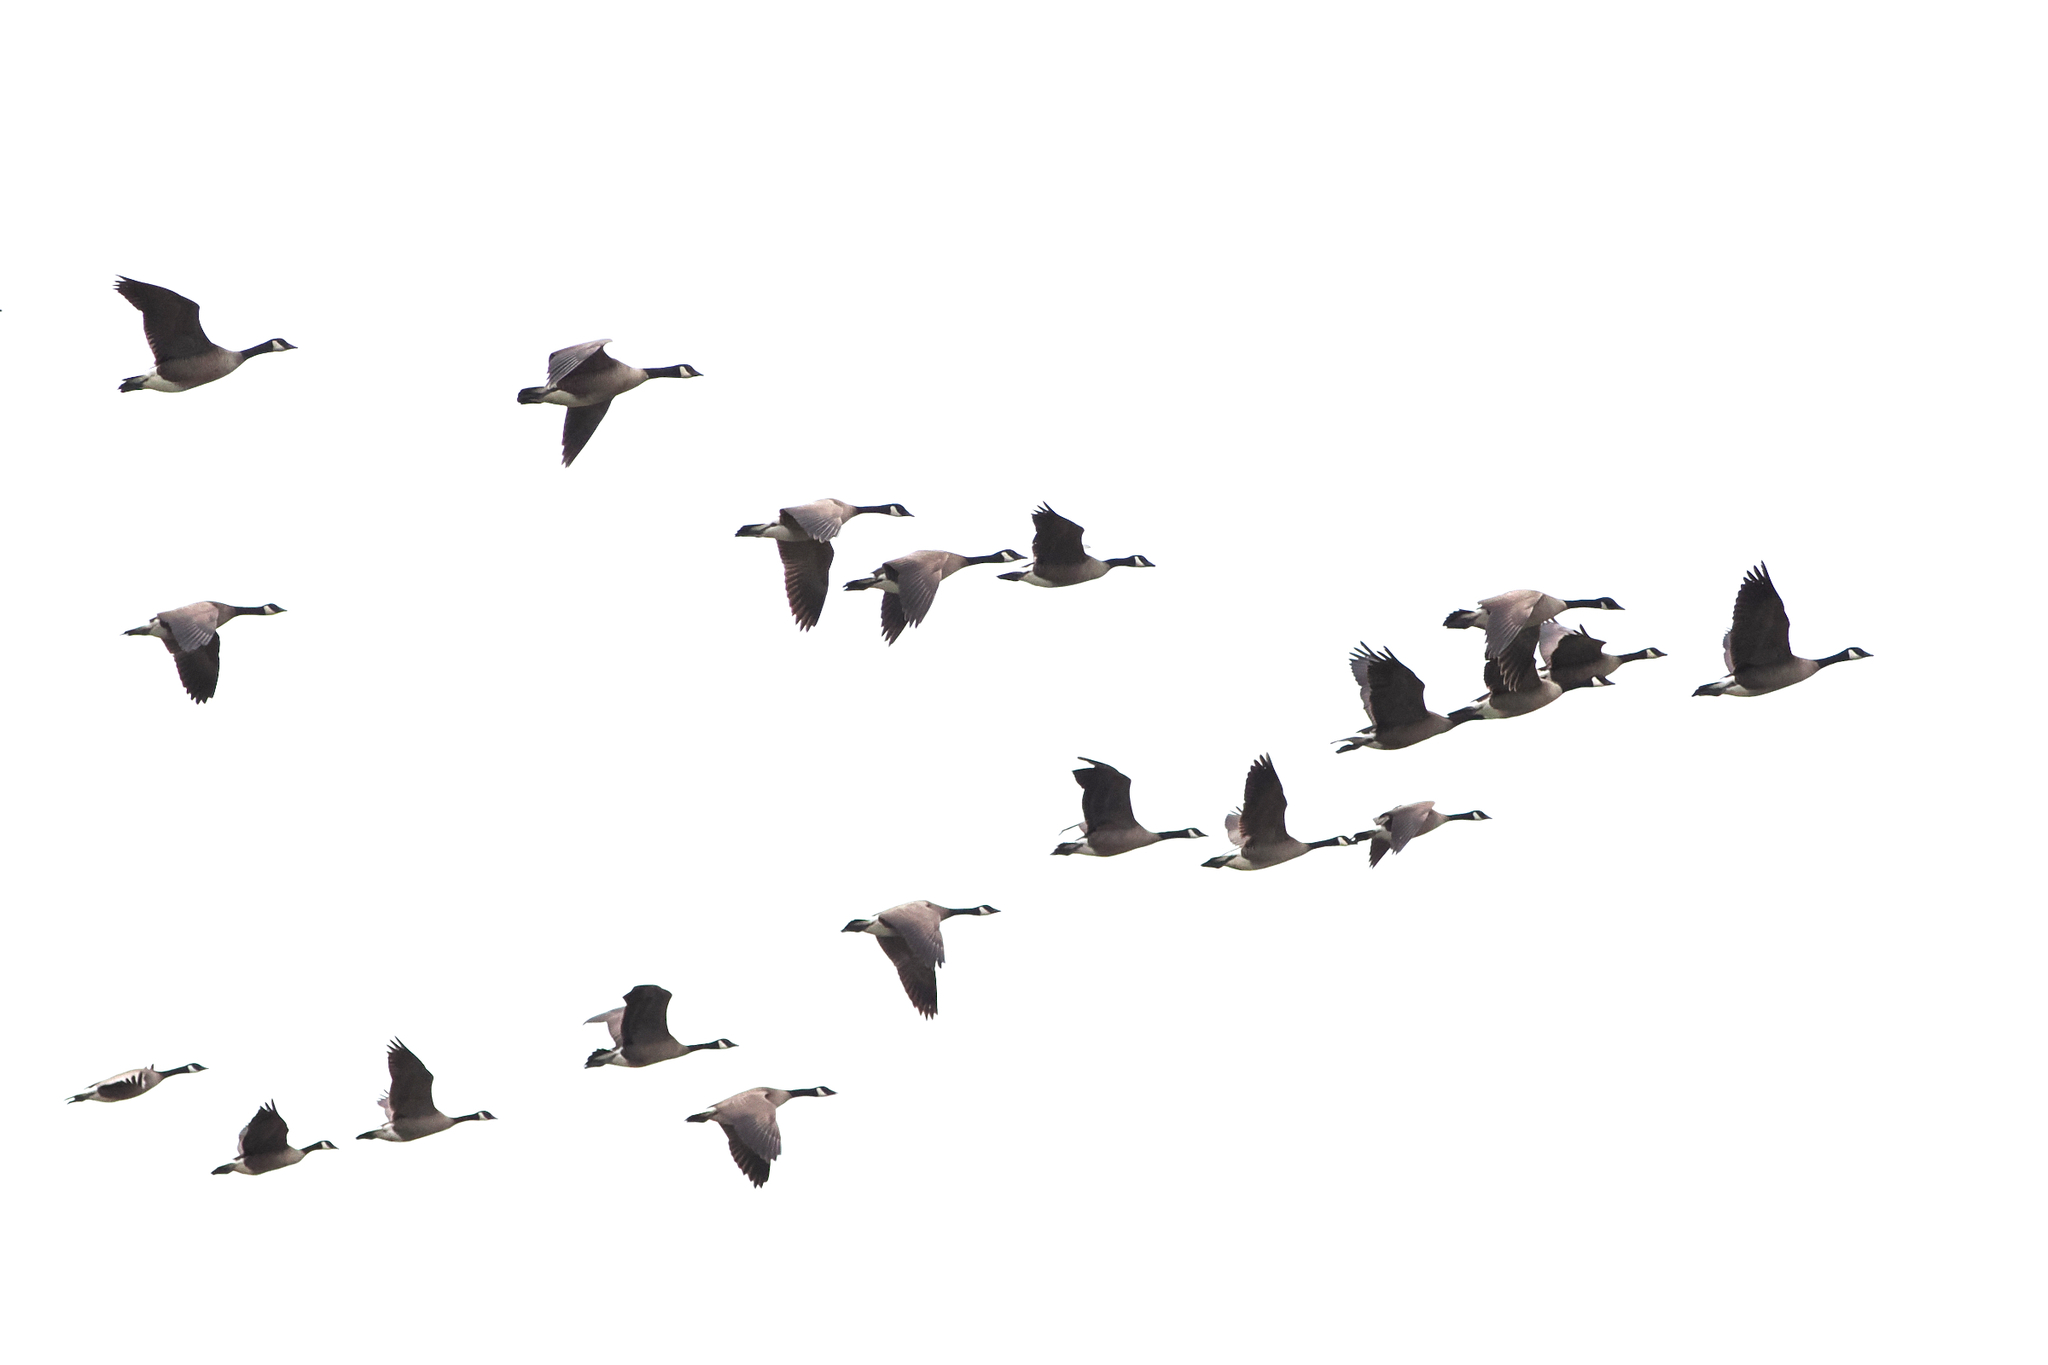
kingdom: Animalia
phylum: Chordata
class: Aves
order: Anseriformes
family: Anatidae
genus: Branta
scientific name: Branta canadensis
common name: Canada goose
